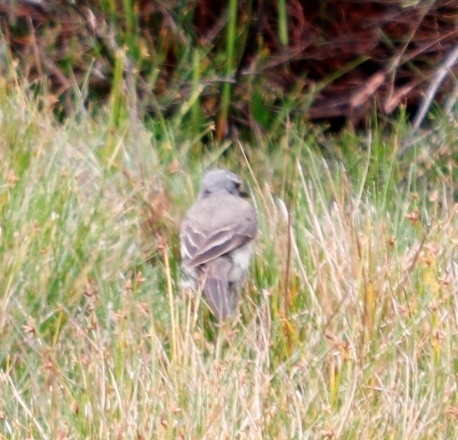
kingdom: Animalia
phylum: Chordata
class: Aves
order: Passeriformes
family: Motacillidae
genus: Motacilla
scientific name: Motacilla capensis
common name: Cape wagtail
